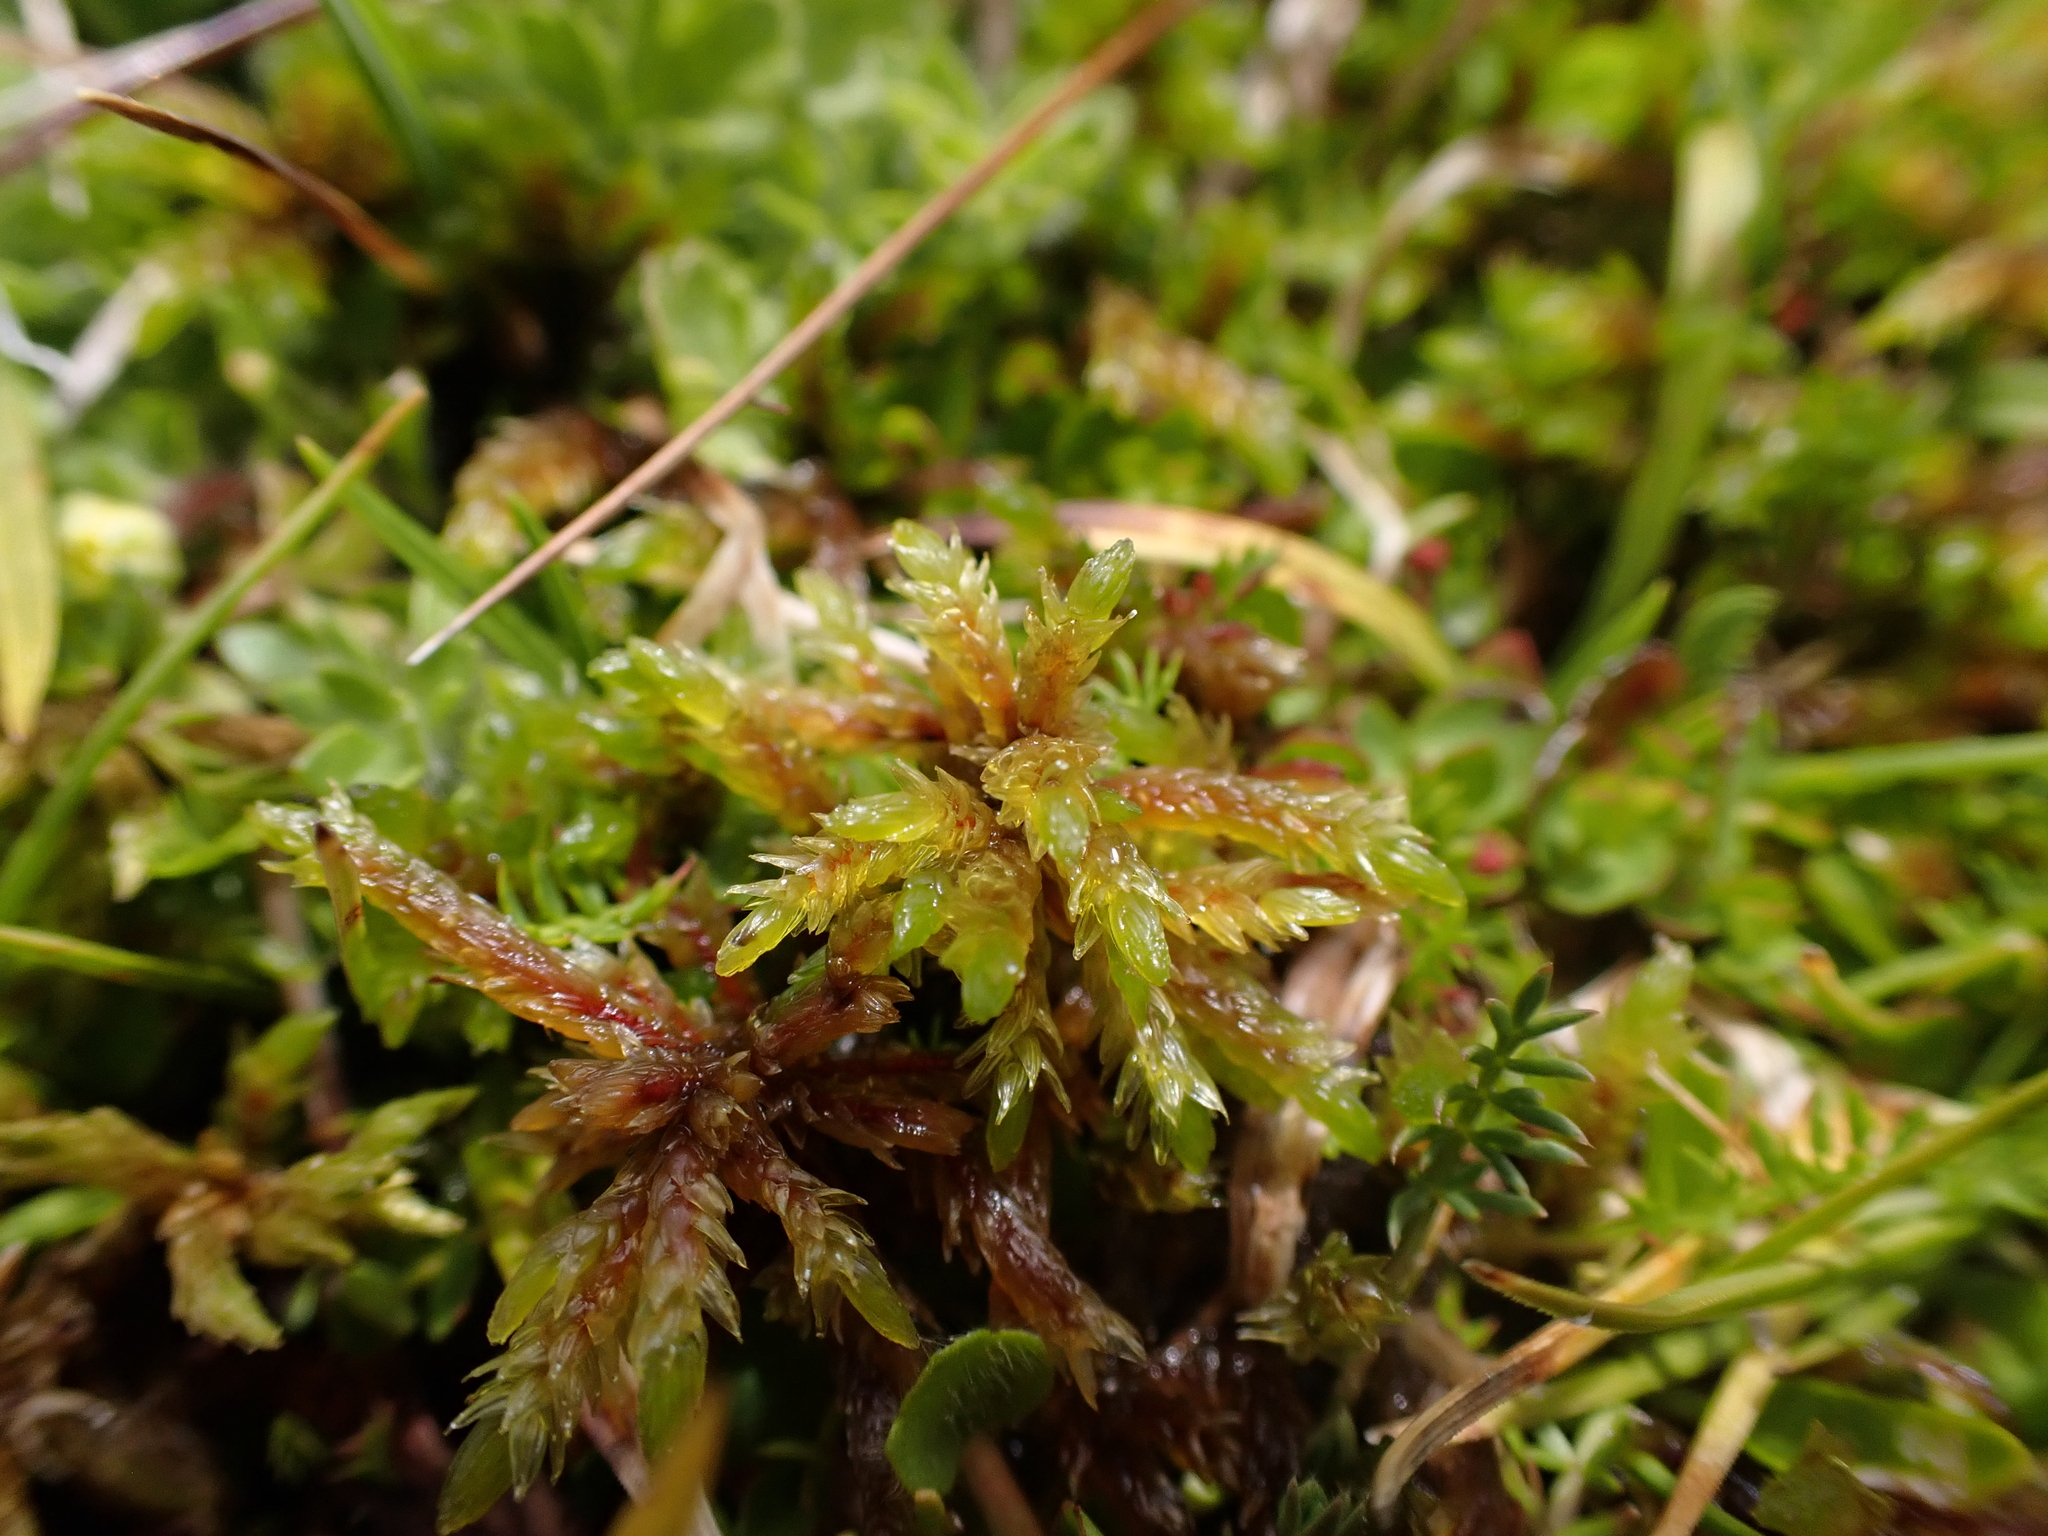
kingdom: Plantae
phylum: Bryophyta
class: Bryopsida
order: Hypnales
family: Climaciaceae
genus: Climacium
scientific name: Climacium dendroides
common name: Northern tree moss
